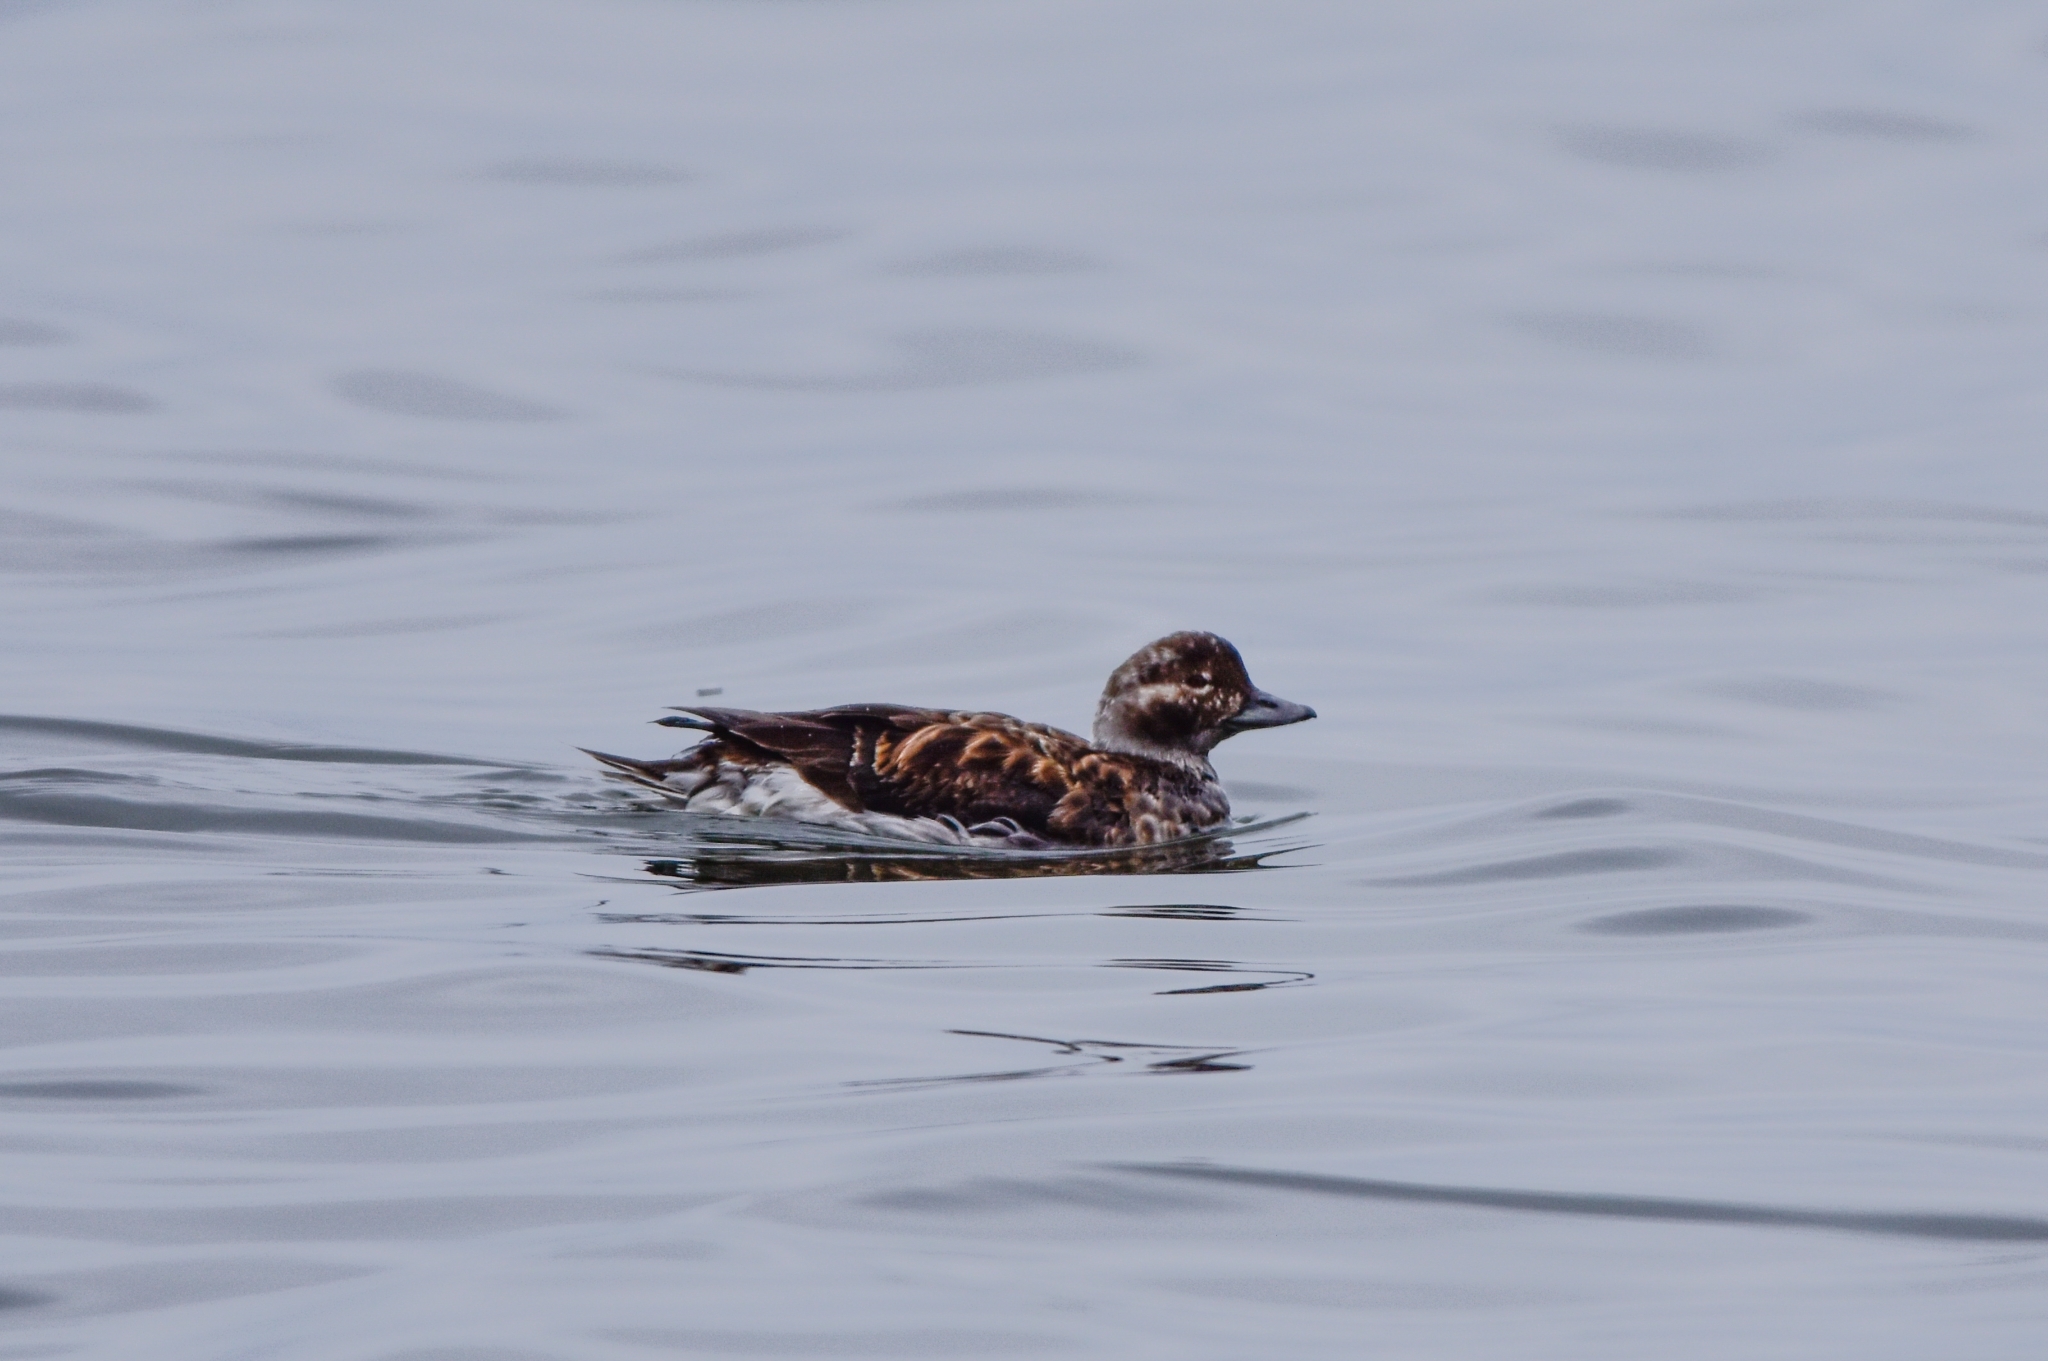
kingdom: Animalia
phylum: Chordata
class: Aves
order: Anseriformes
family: Anatidae
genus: Clangula
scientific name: Clangula hyemalis
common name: Long-tailed duck
